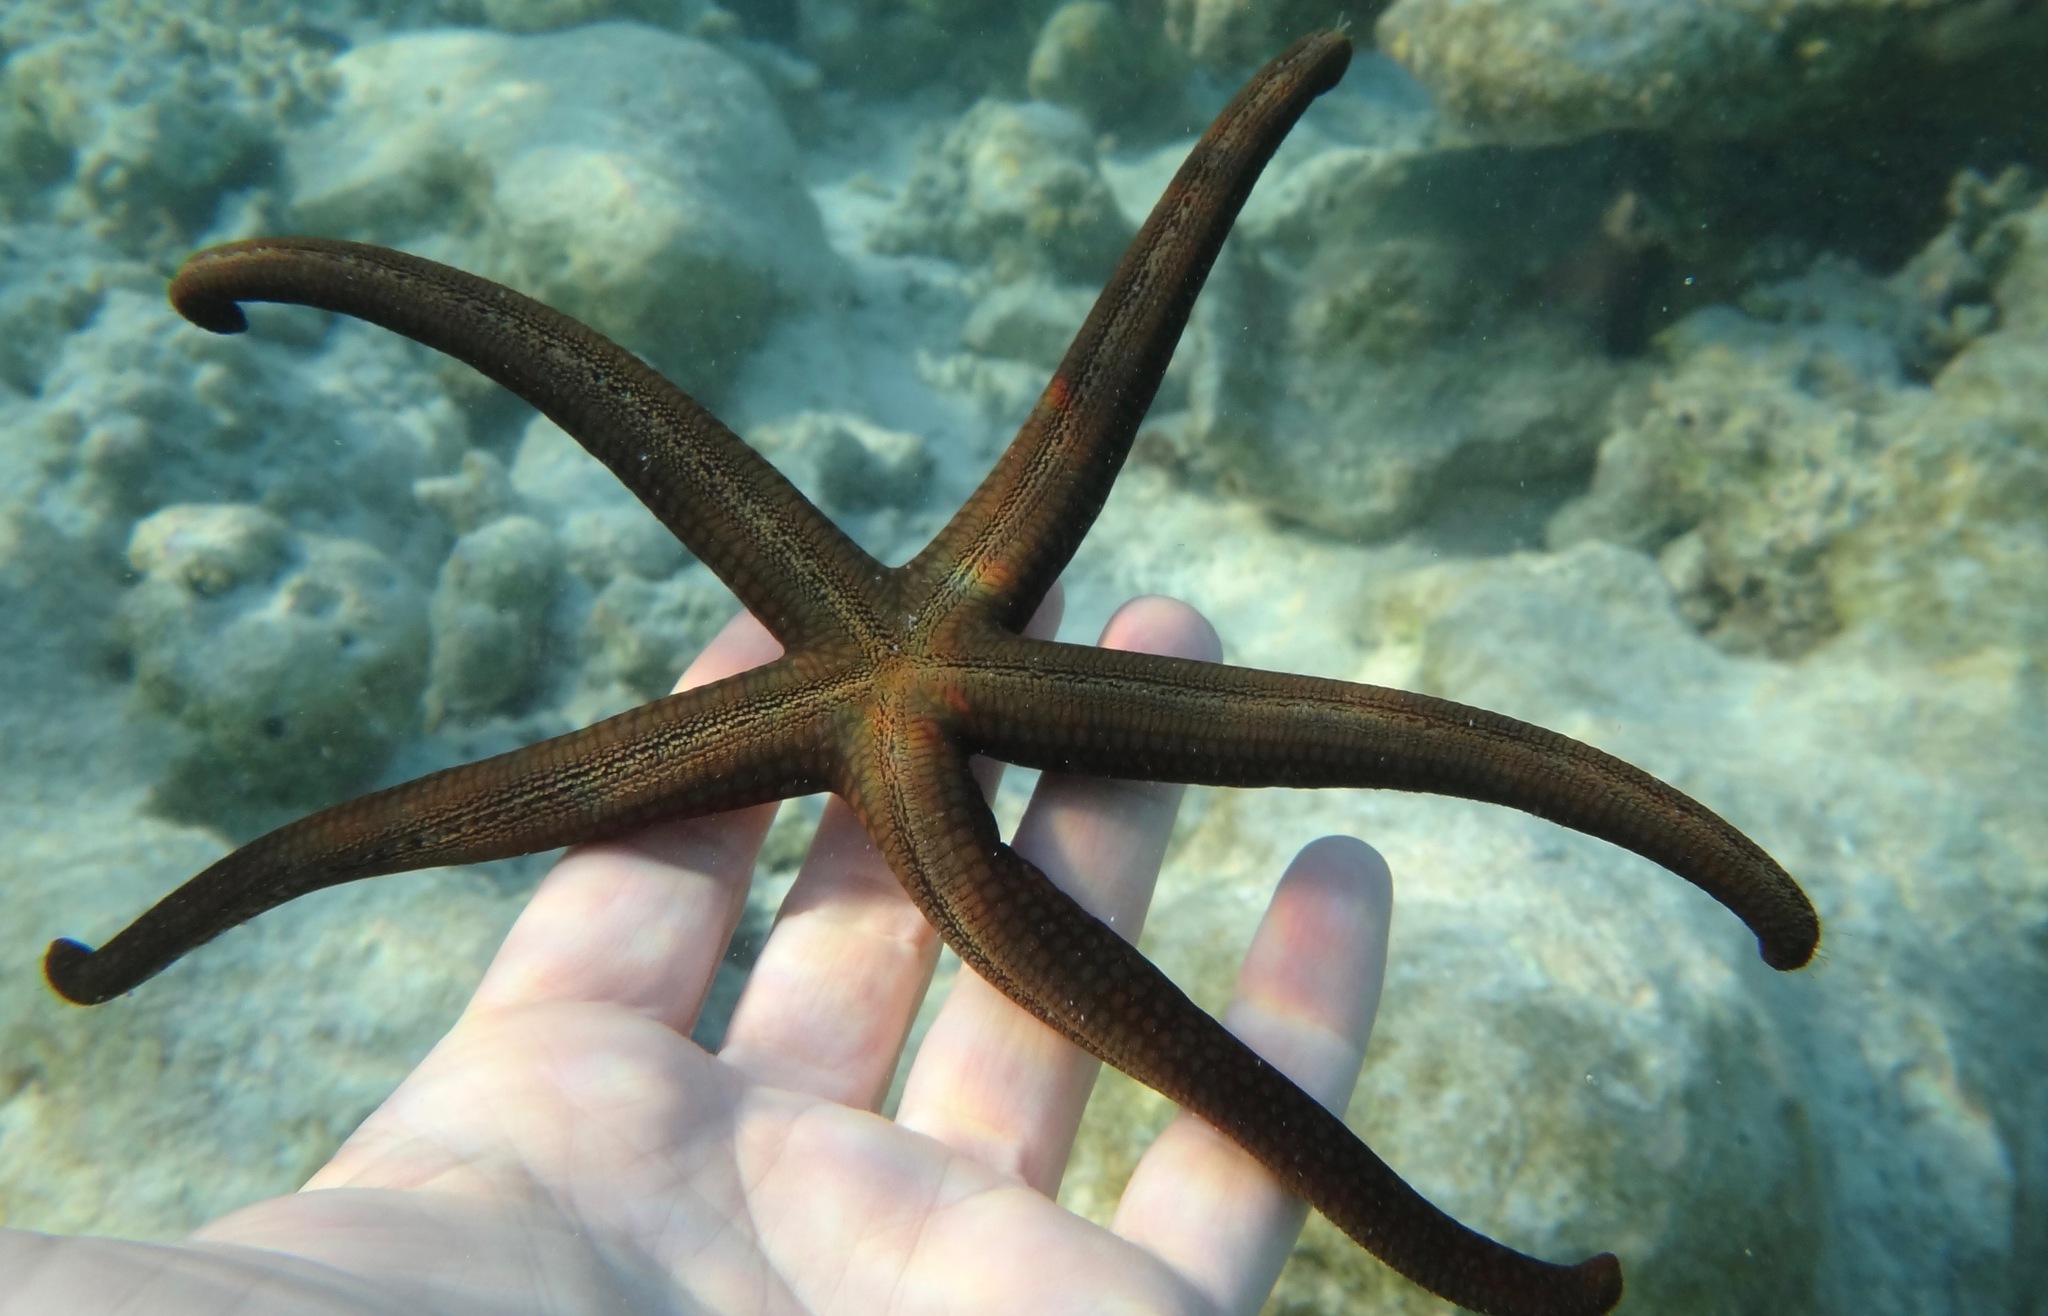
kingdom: Animalia
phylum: Echinodermata
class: Asteroidea
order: Valvatida
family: Ophidiasteridae
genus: Nardoa
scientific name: Nardoa galatheae
